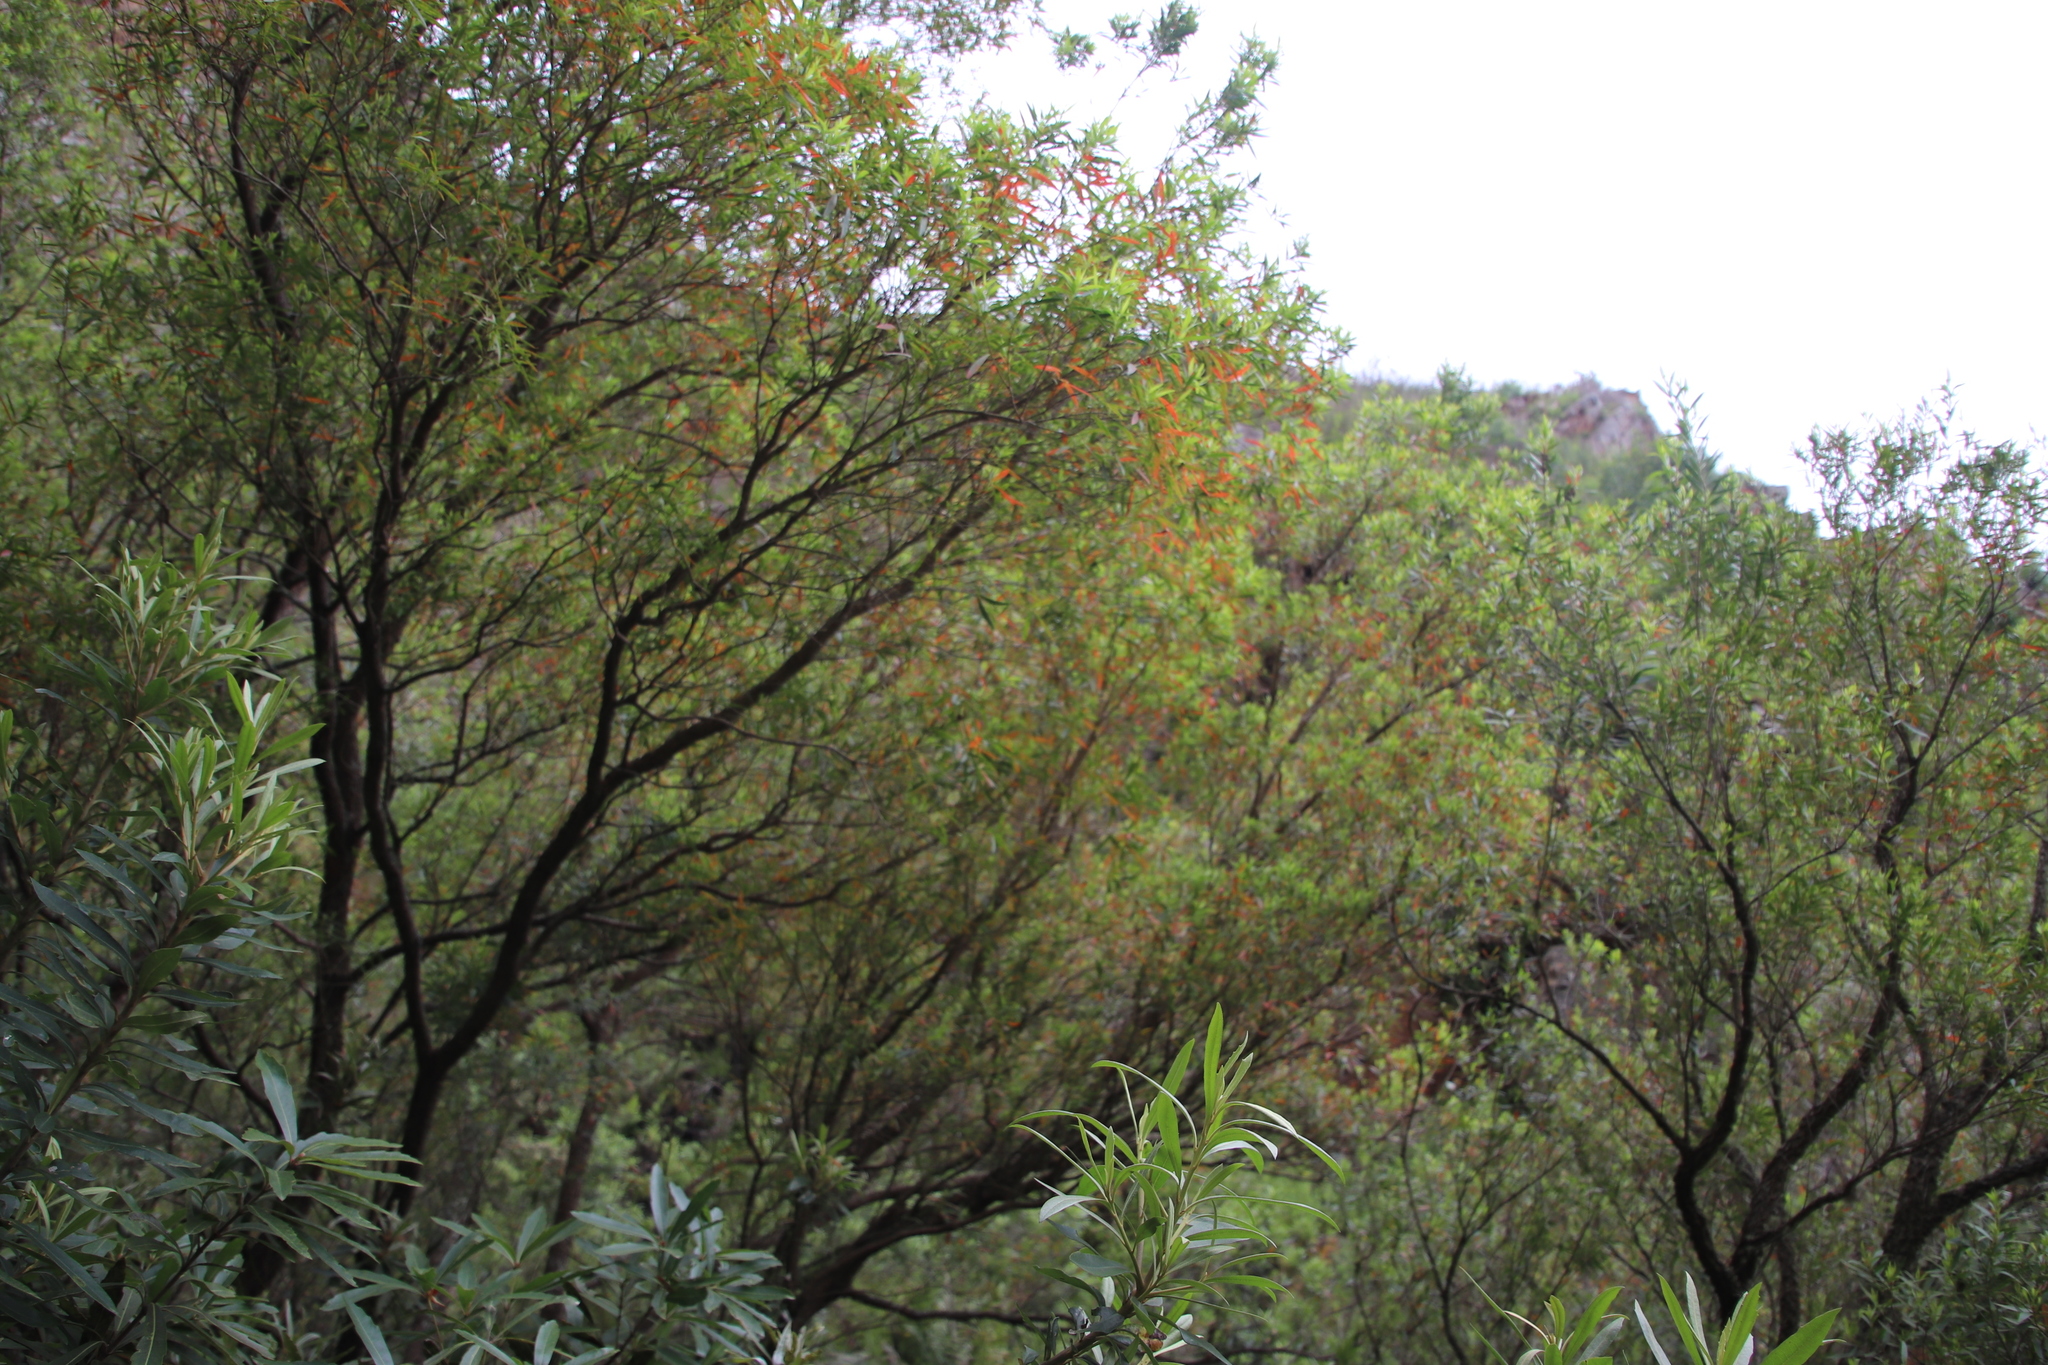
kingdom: Plantae
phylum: Tracheophyta
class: Magnoliopsida
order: Myrtales
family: Myrtaceae
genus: Callistemon
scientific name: Callistemon lanceolatus
